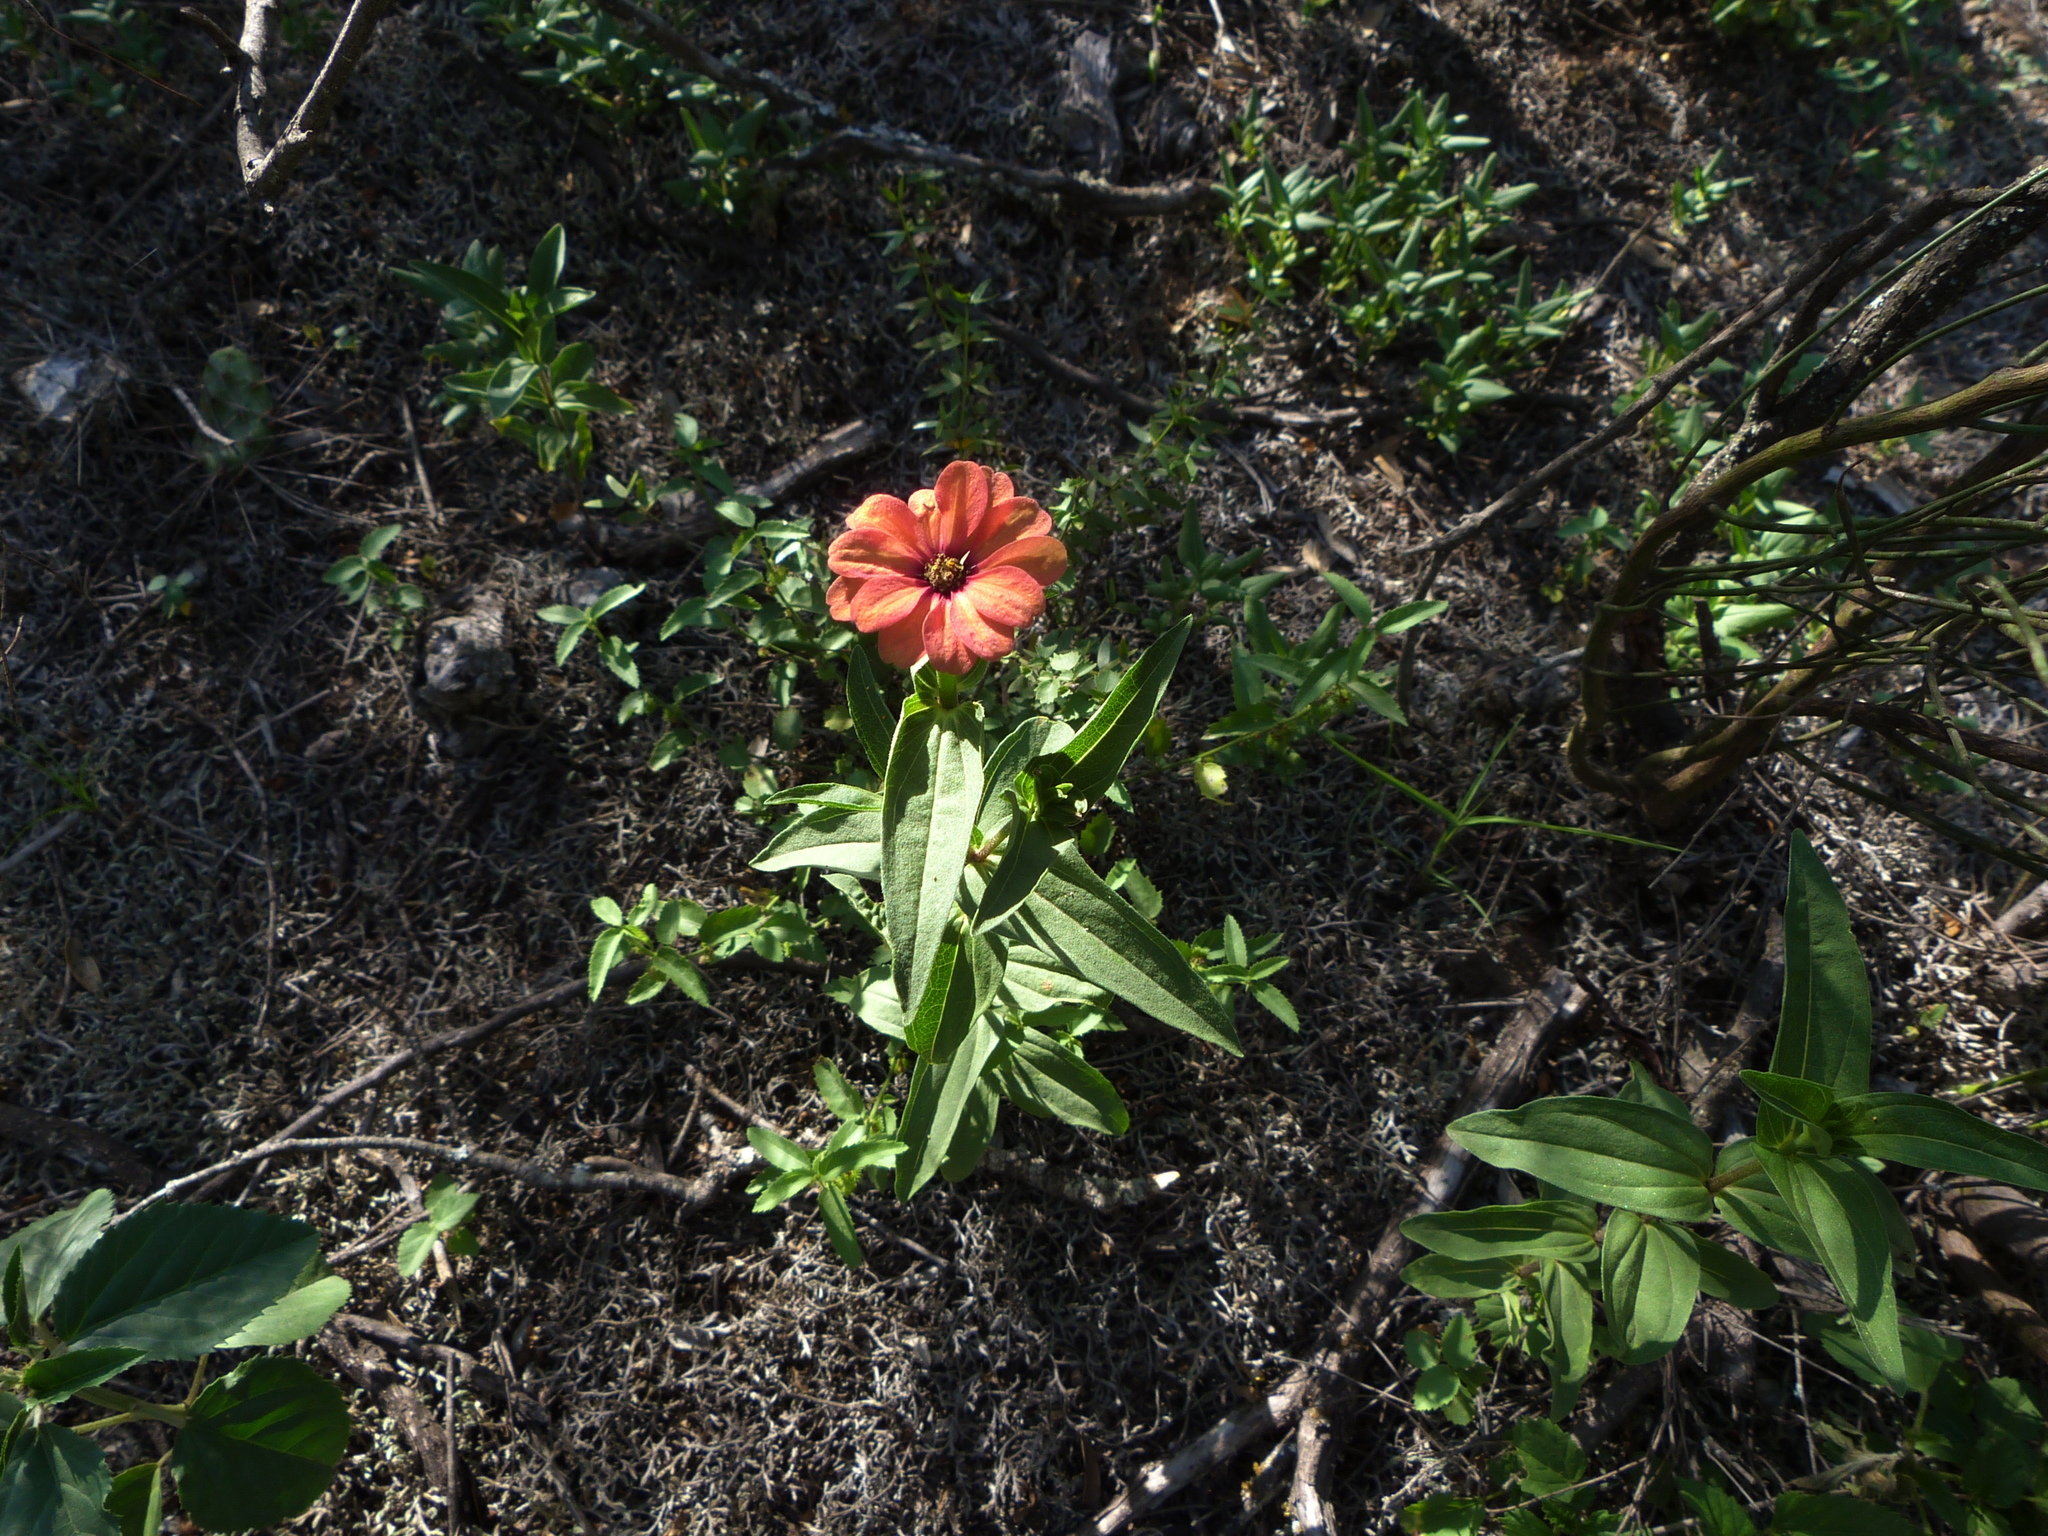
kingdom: Plantae
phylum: Tracheophyta
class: Magnoliopsida
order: Asterales
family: Asteraceae
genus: Zinnia
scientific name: Zinnia peruviana
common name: Peruvian zinnia
